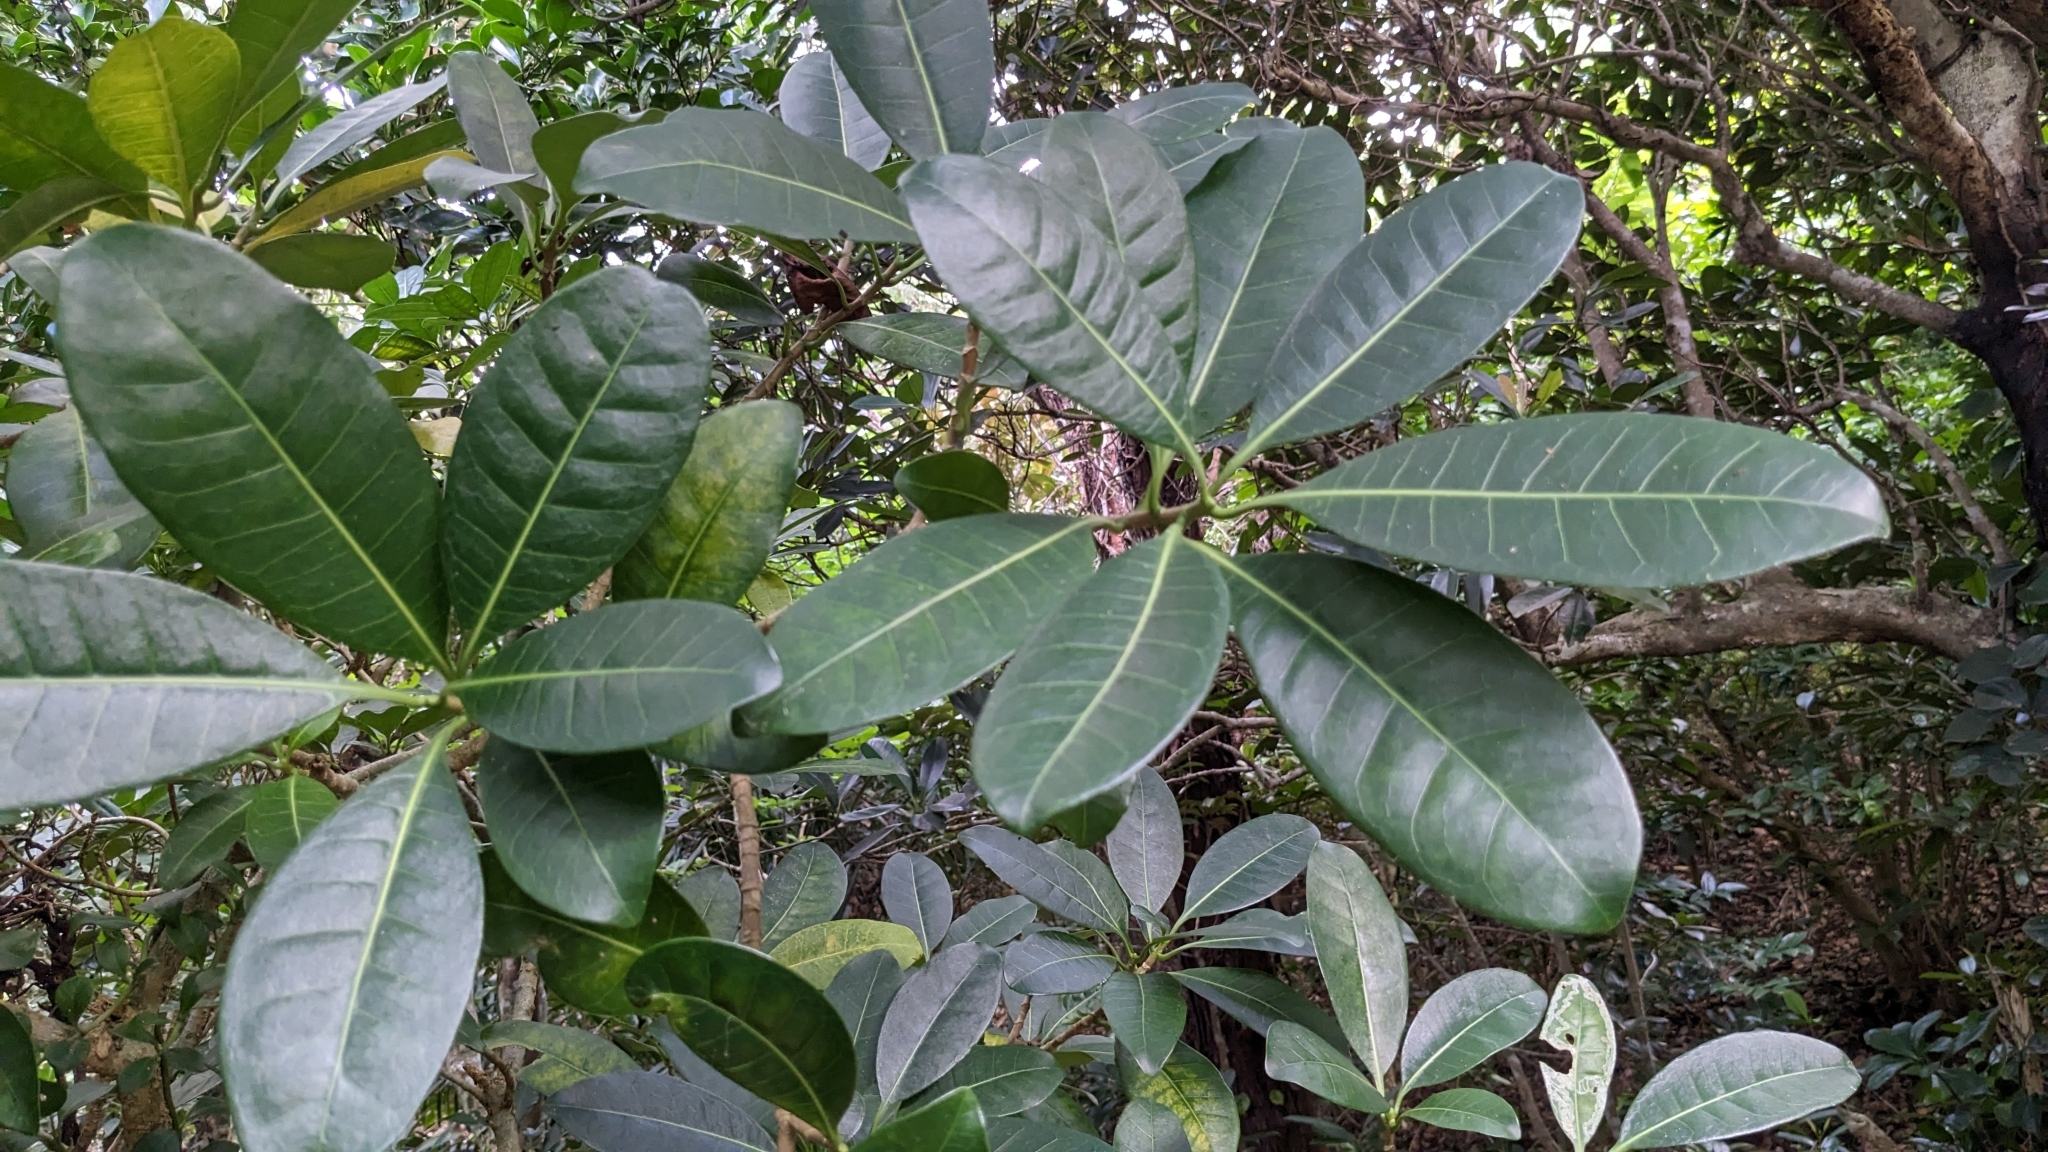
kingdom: Plantae
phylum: Tracheophyta
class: Magnoliopsida
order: Gentianales
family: Apocynaceae
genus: Tabernaemontana
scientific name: Tabernaemontana pandacaqui
